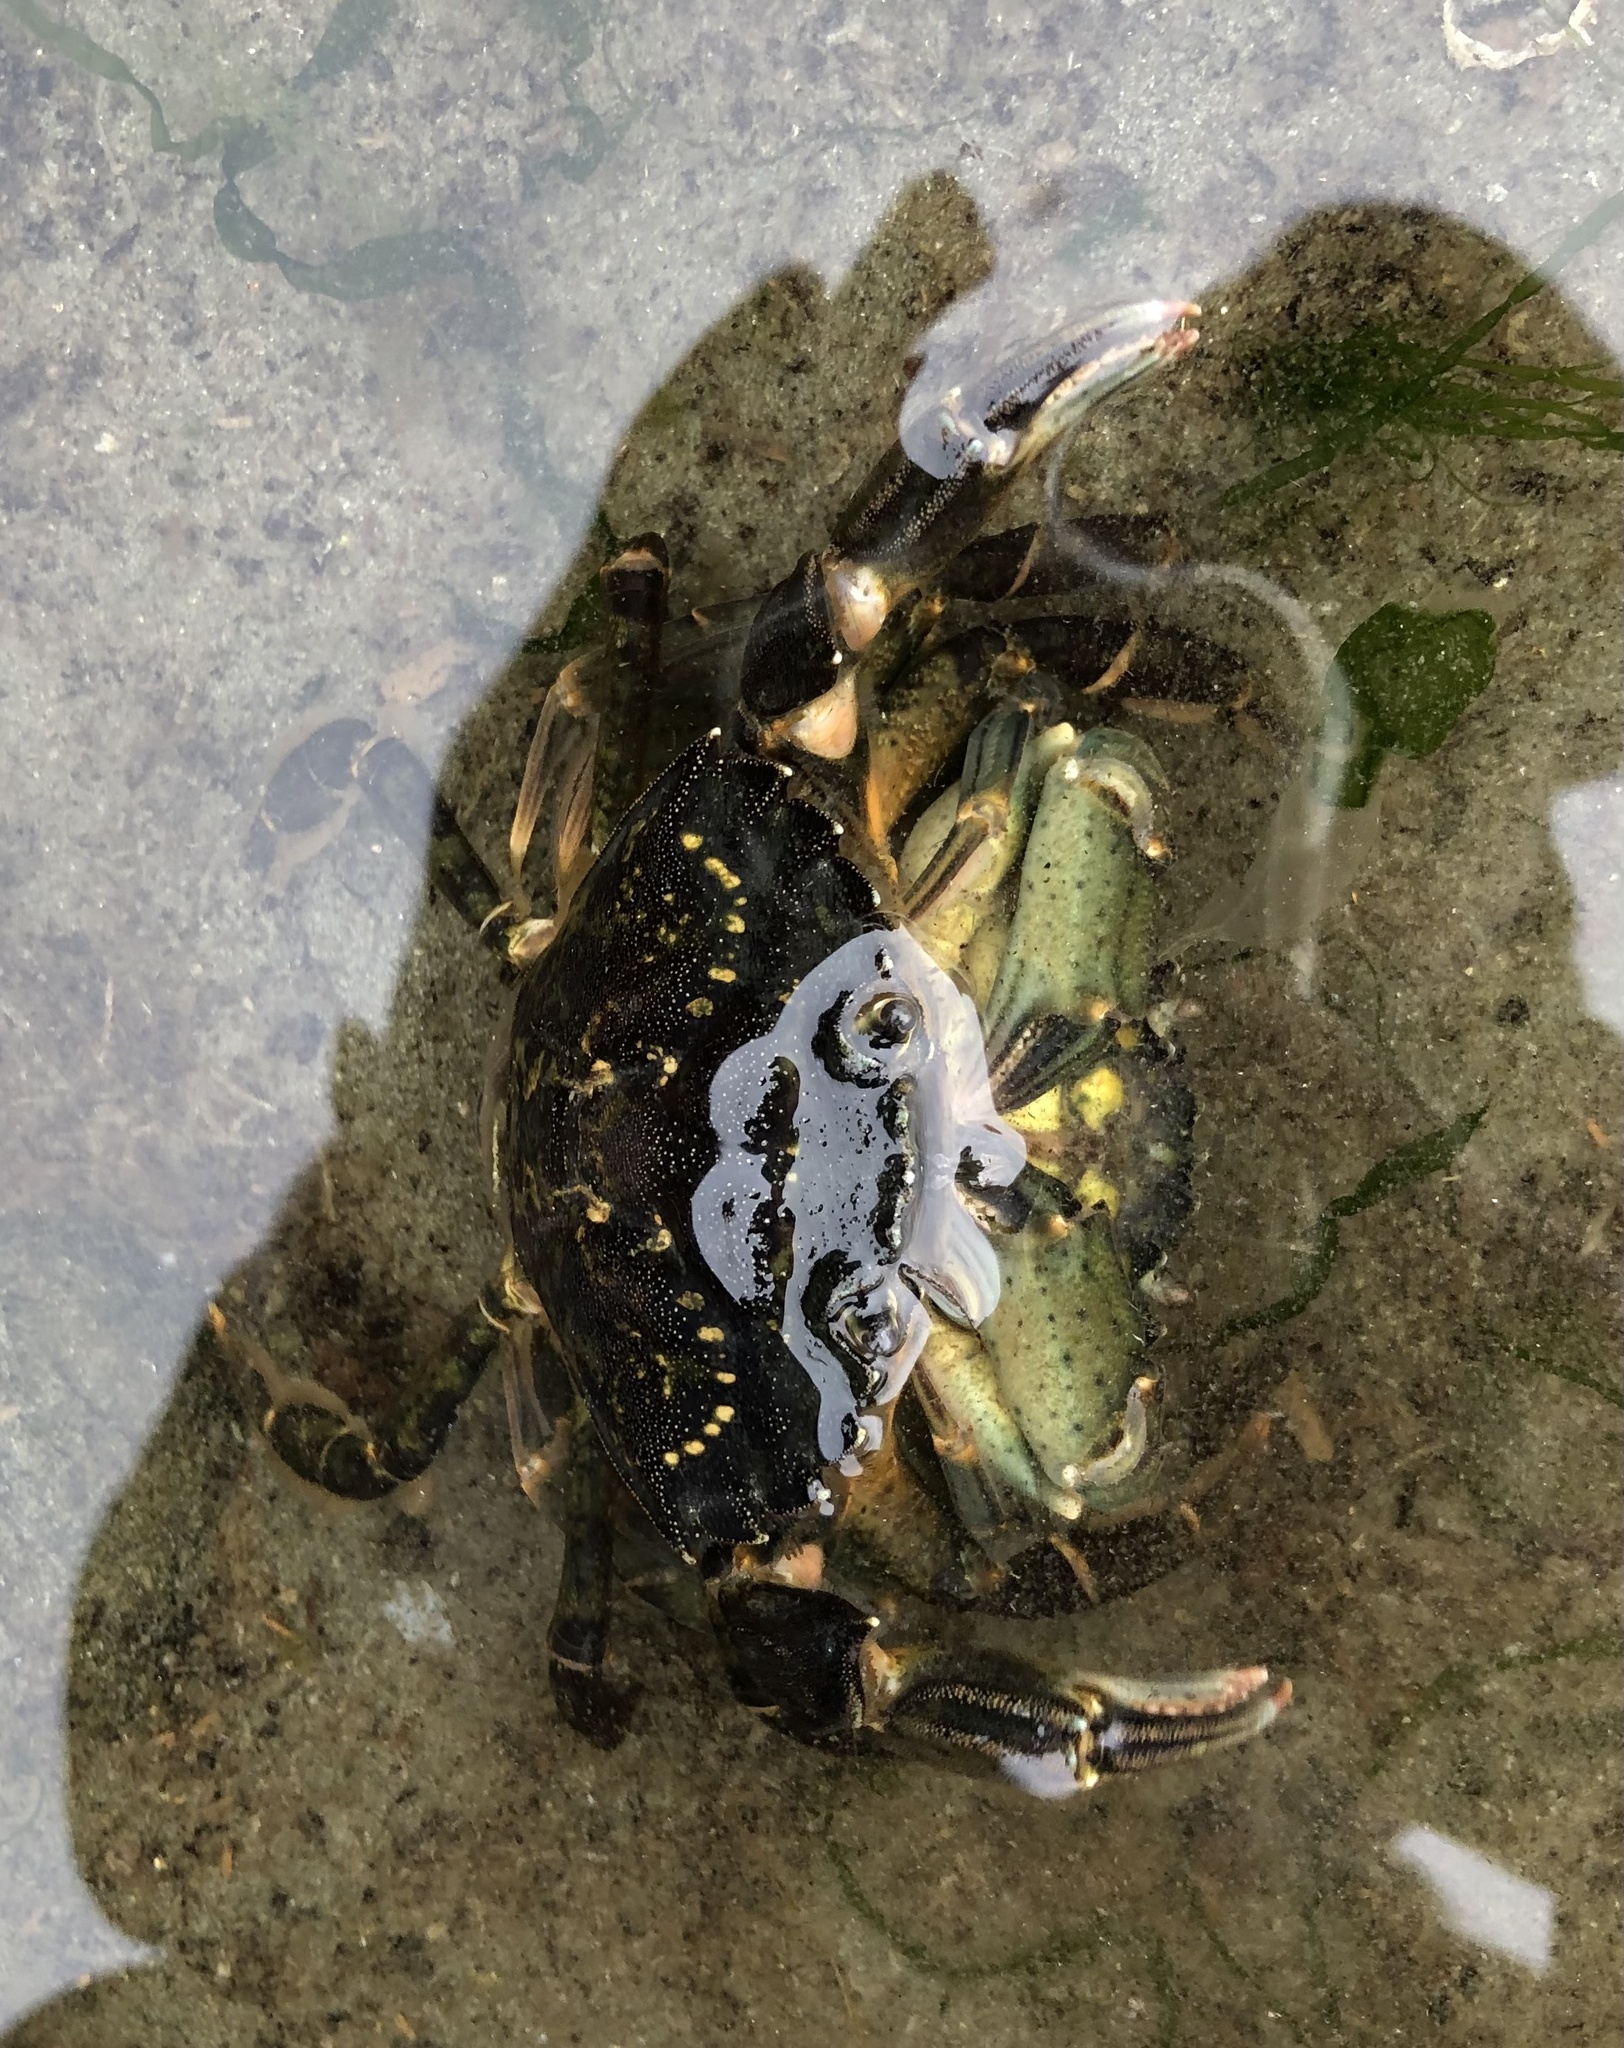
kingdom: Animalia
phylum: Arthropoda
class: Malacostraca
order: Decapoda
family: Carcinidae
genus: Carcinus
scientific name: Carcinus maenas
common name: European green crab
